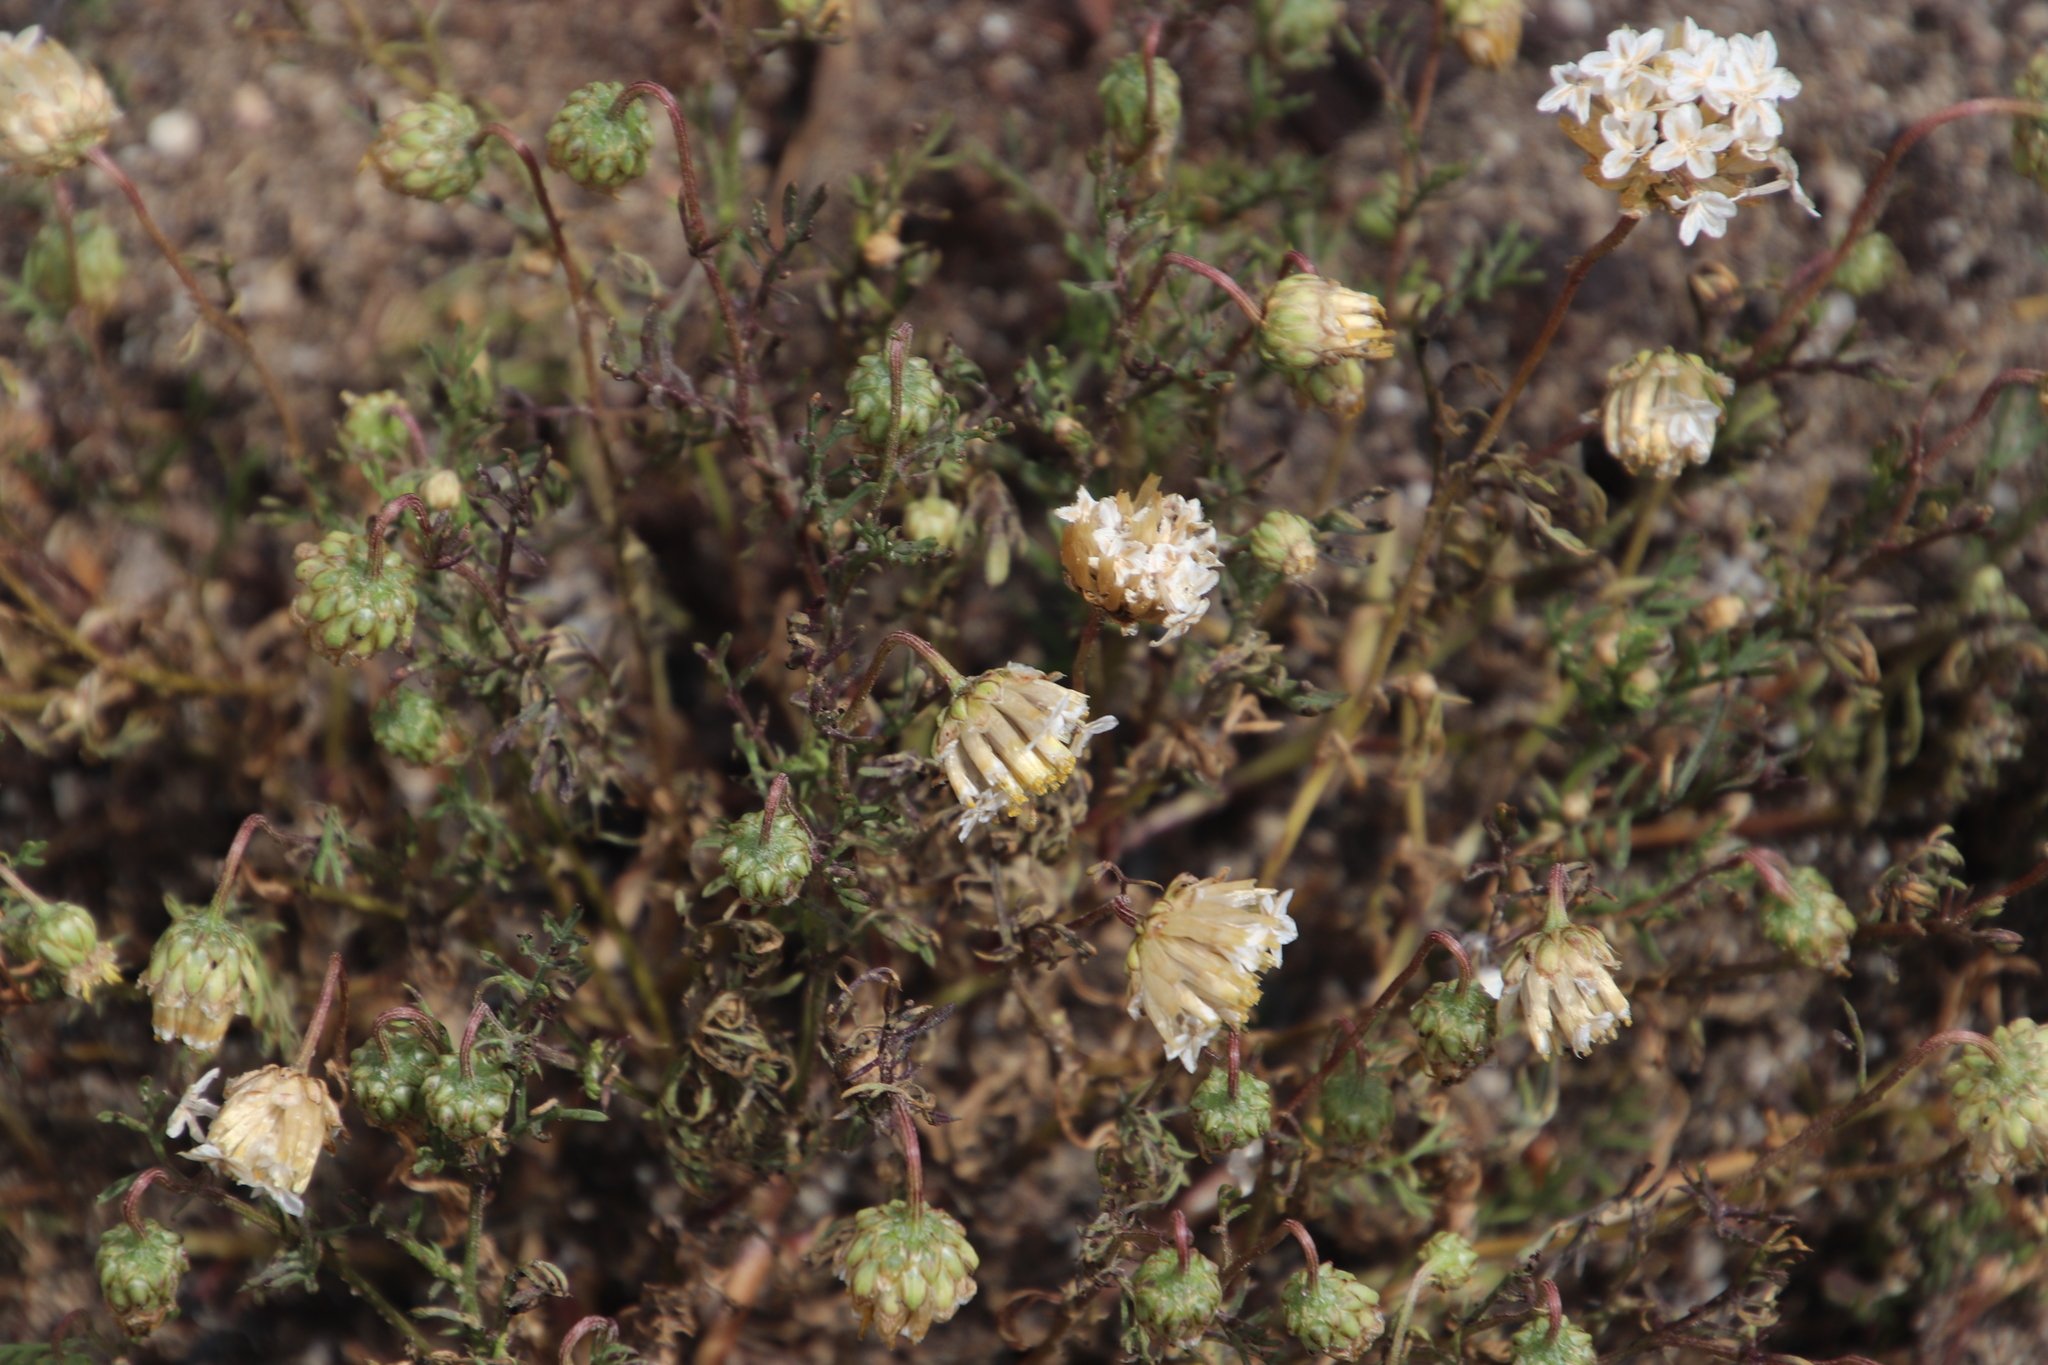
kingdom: Plantae
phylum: Tracheophyta
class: Magnoliopsida
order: Asterales
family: Asteraceae
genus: Ursinia
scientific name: Ursinia anthemoides
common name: Ursinia
